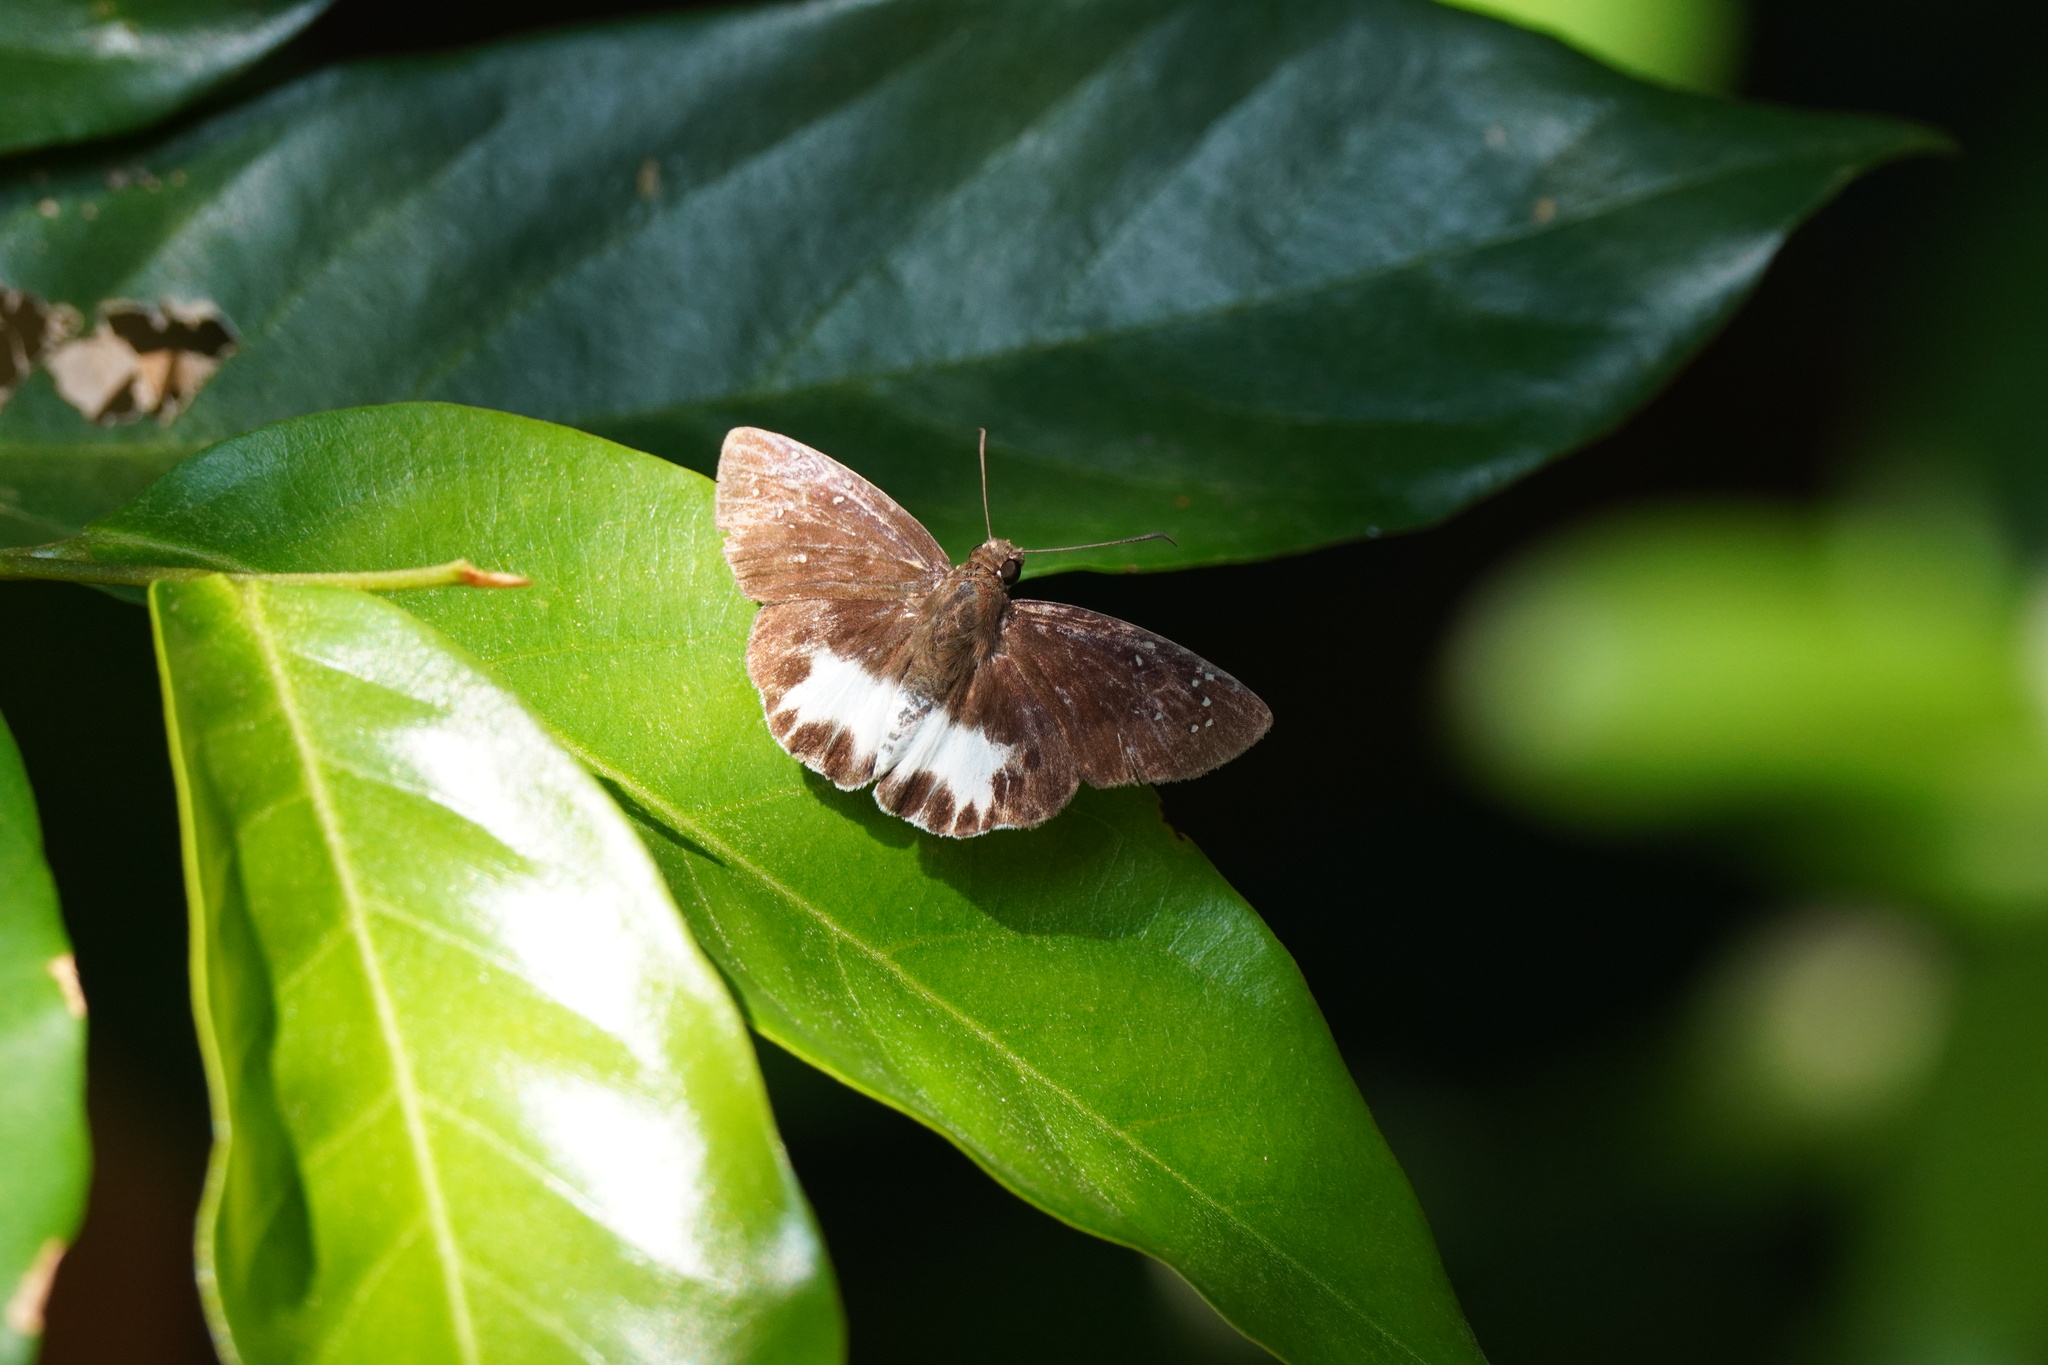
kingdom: Animalia
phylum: Arthropoda
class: Insecta
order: Lepidoptera
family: Hesperiidae
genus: Tagiades
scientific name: Tagiades litigiosa
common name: Water snow flat
